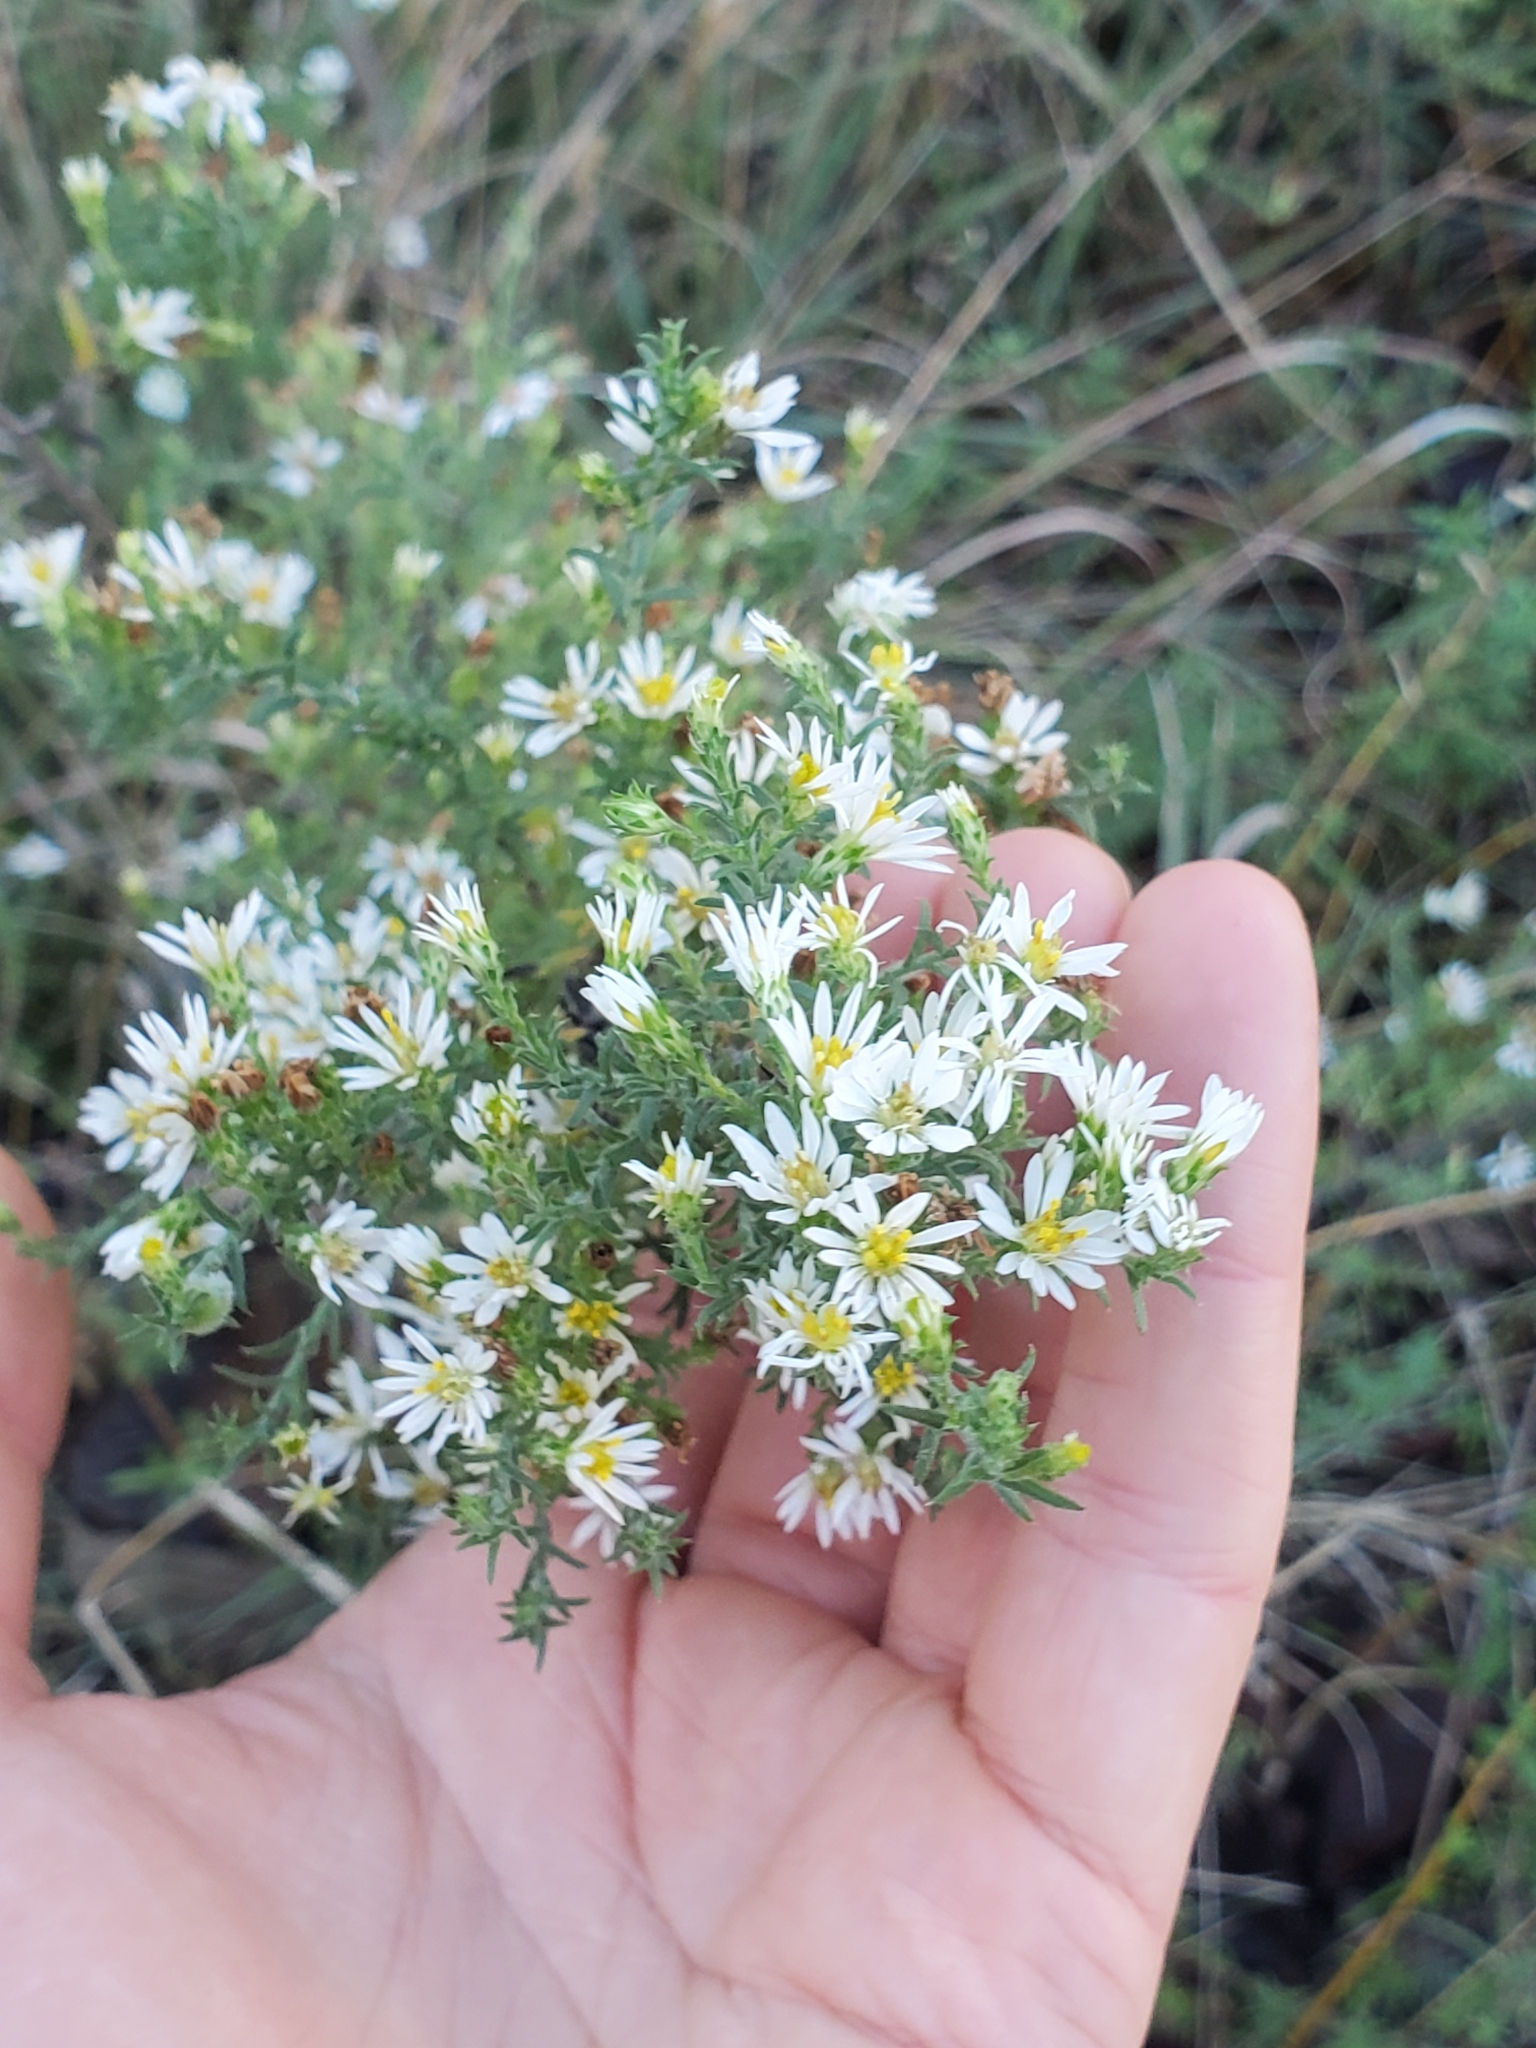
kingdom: Plantae
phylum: Tracheophyta
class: Magnoliopsida
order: Asterales
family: Asteraceae
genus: Symphyotrichum
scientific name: Symphyotrichum ericoides
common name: Heath aster
